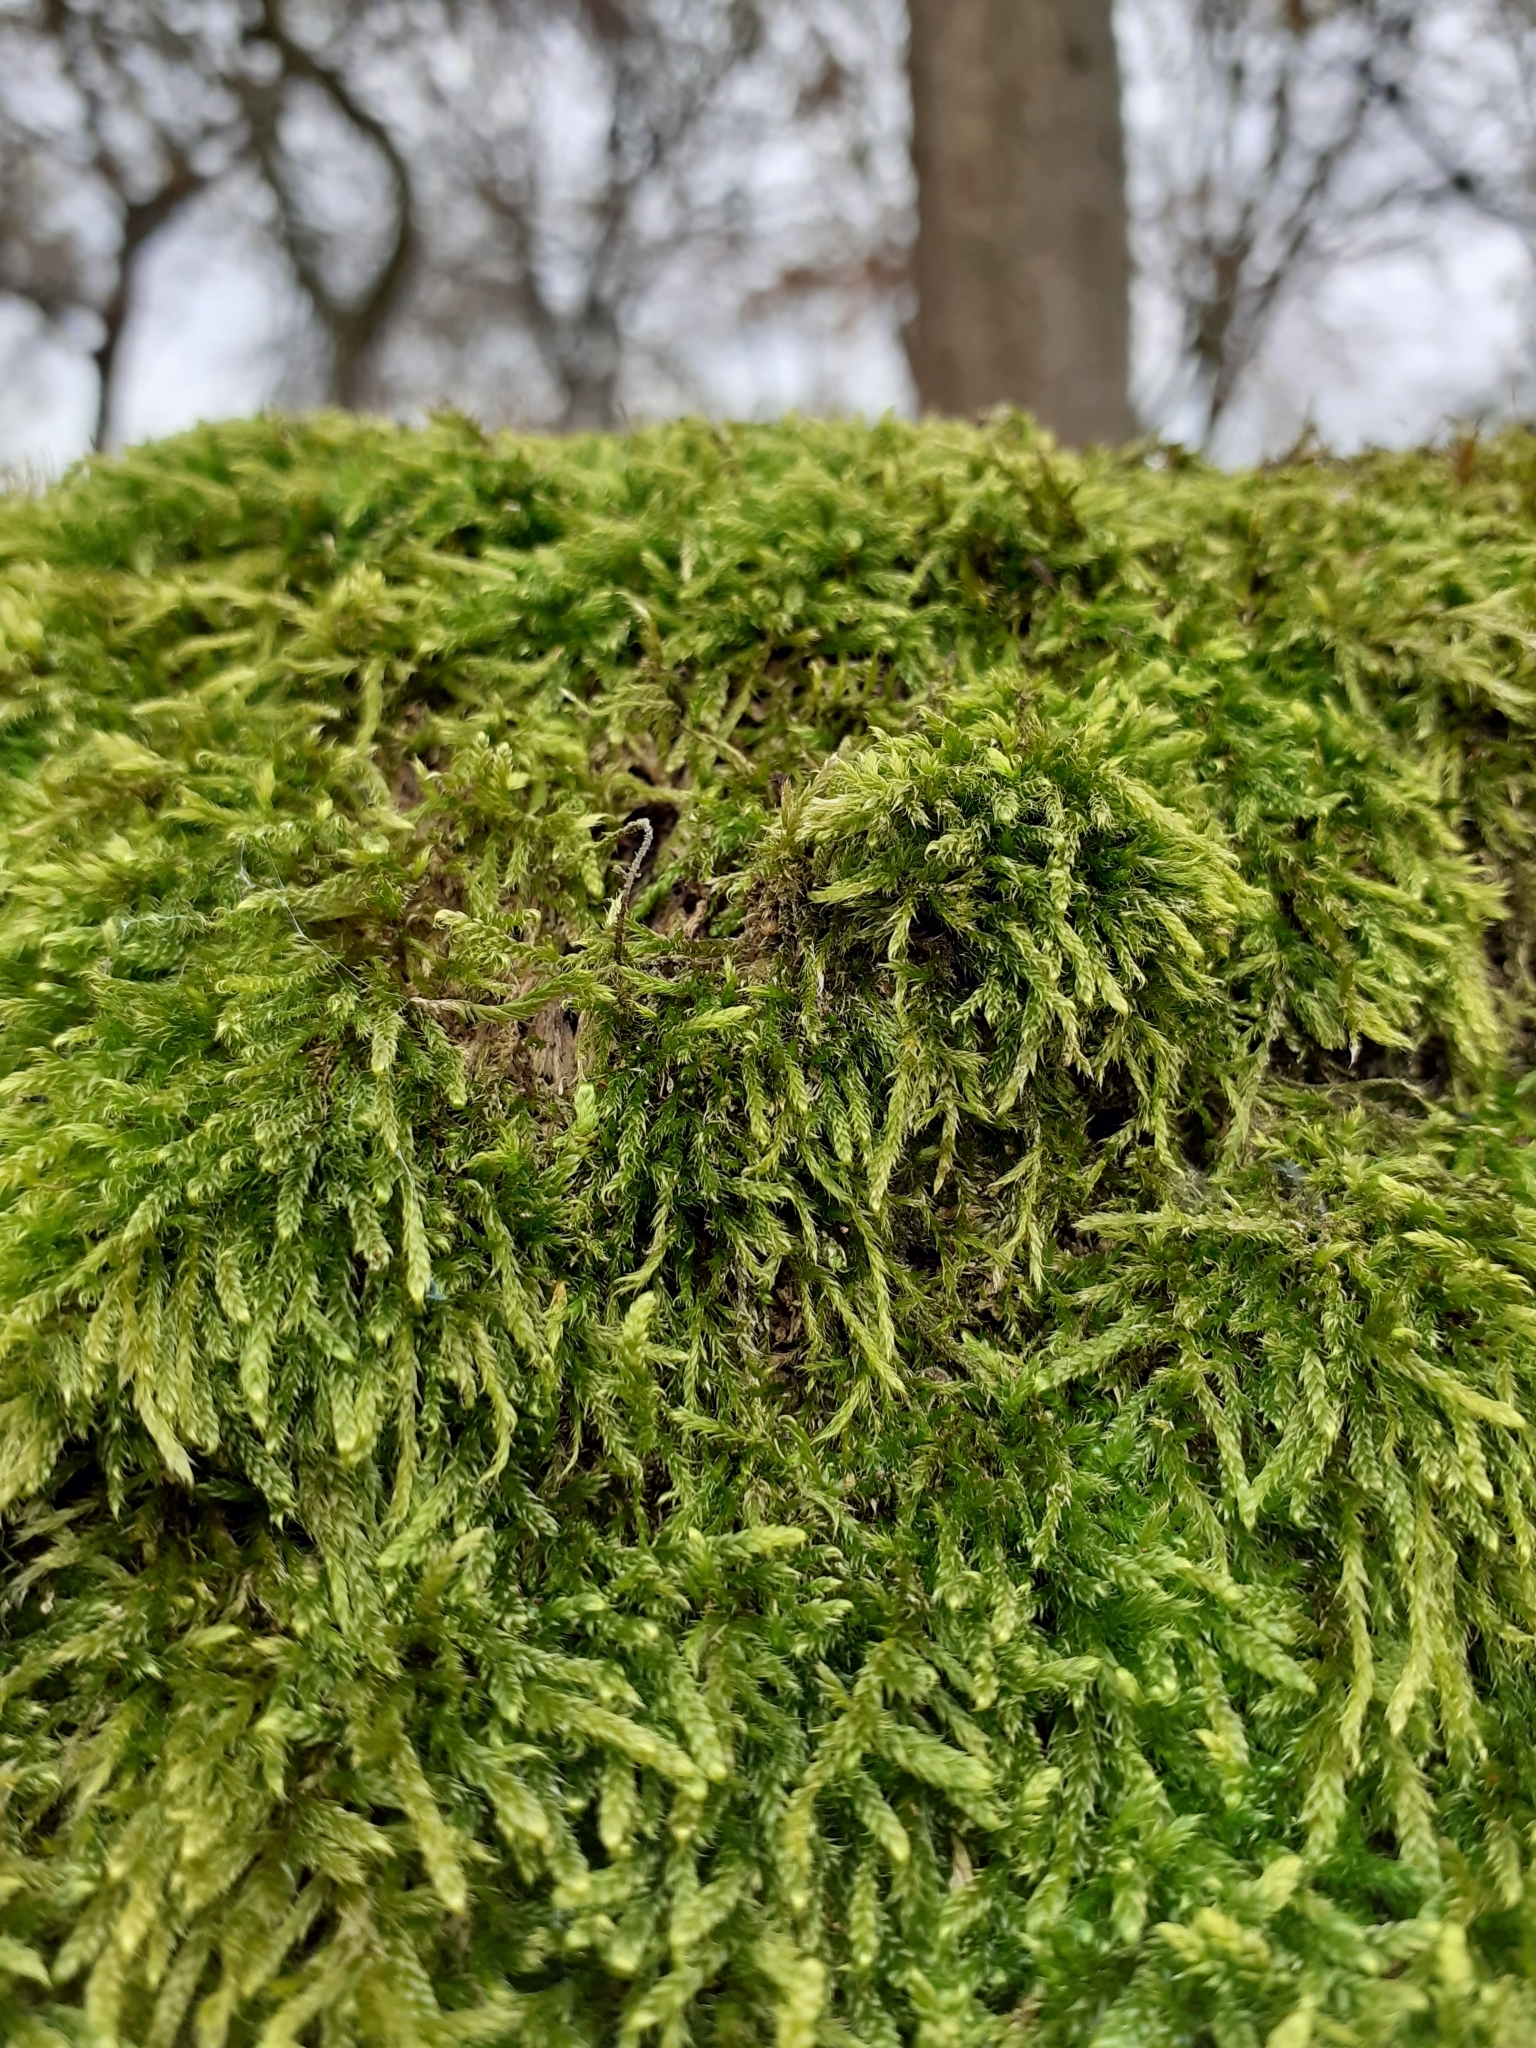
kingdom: Plantae
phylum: Bryophyta
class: Bryopsida
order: Hypnales
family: Hypnaceae
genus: Hypnum
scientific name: Hypnum cupressiforme
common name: Cypress-leaved plait-moss
